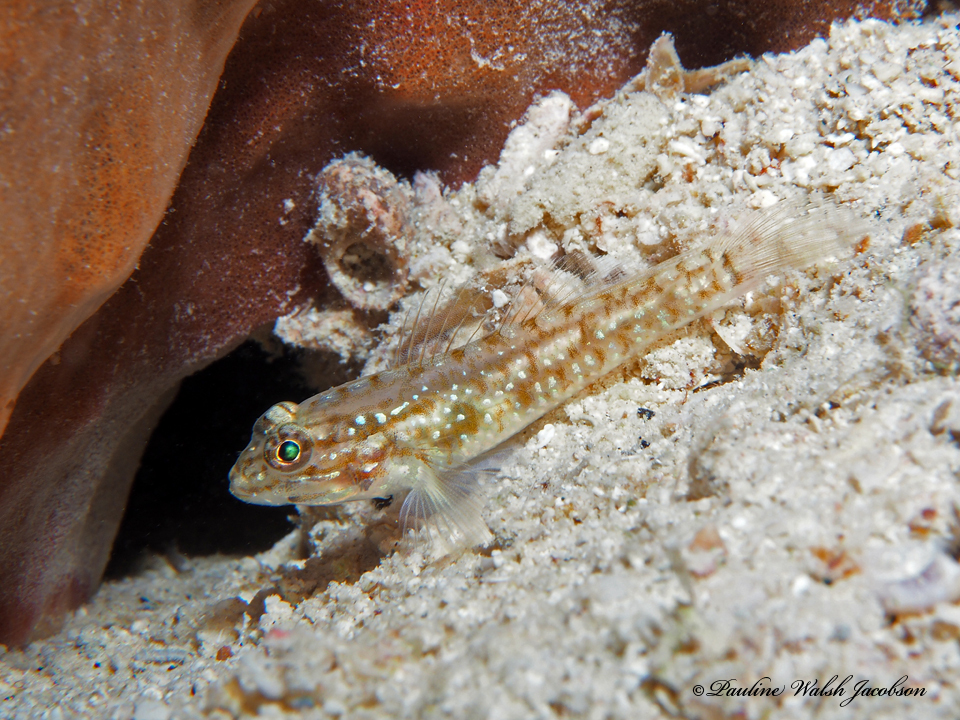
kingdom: Animalia
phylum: Chordata
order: Perciformes
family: Gobiidae
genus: Coryphopterus
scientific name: Coryphopterus glaucofraenum
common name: Bridled goby
